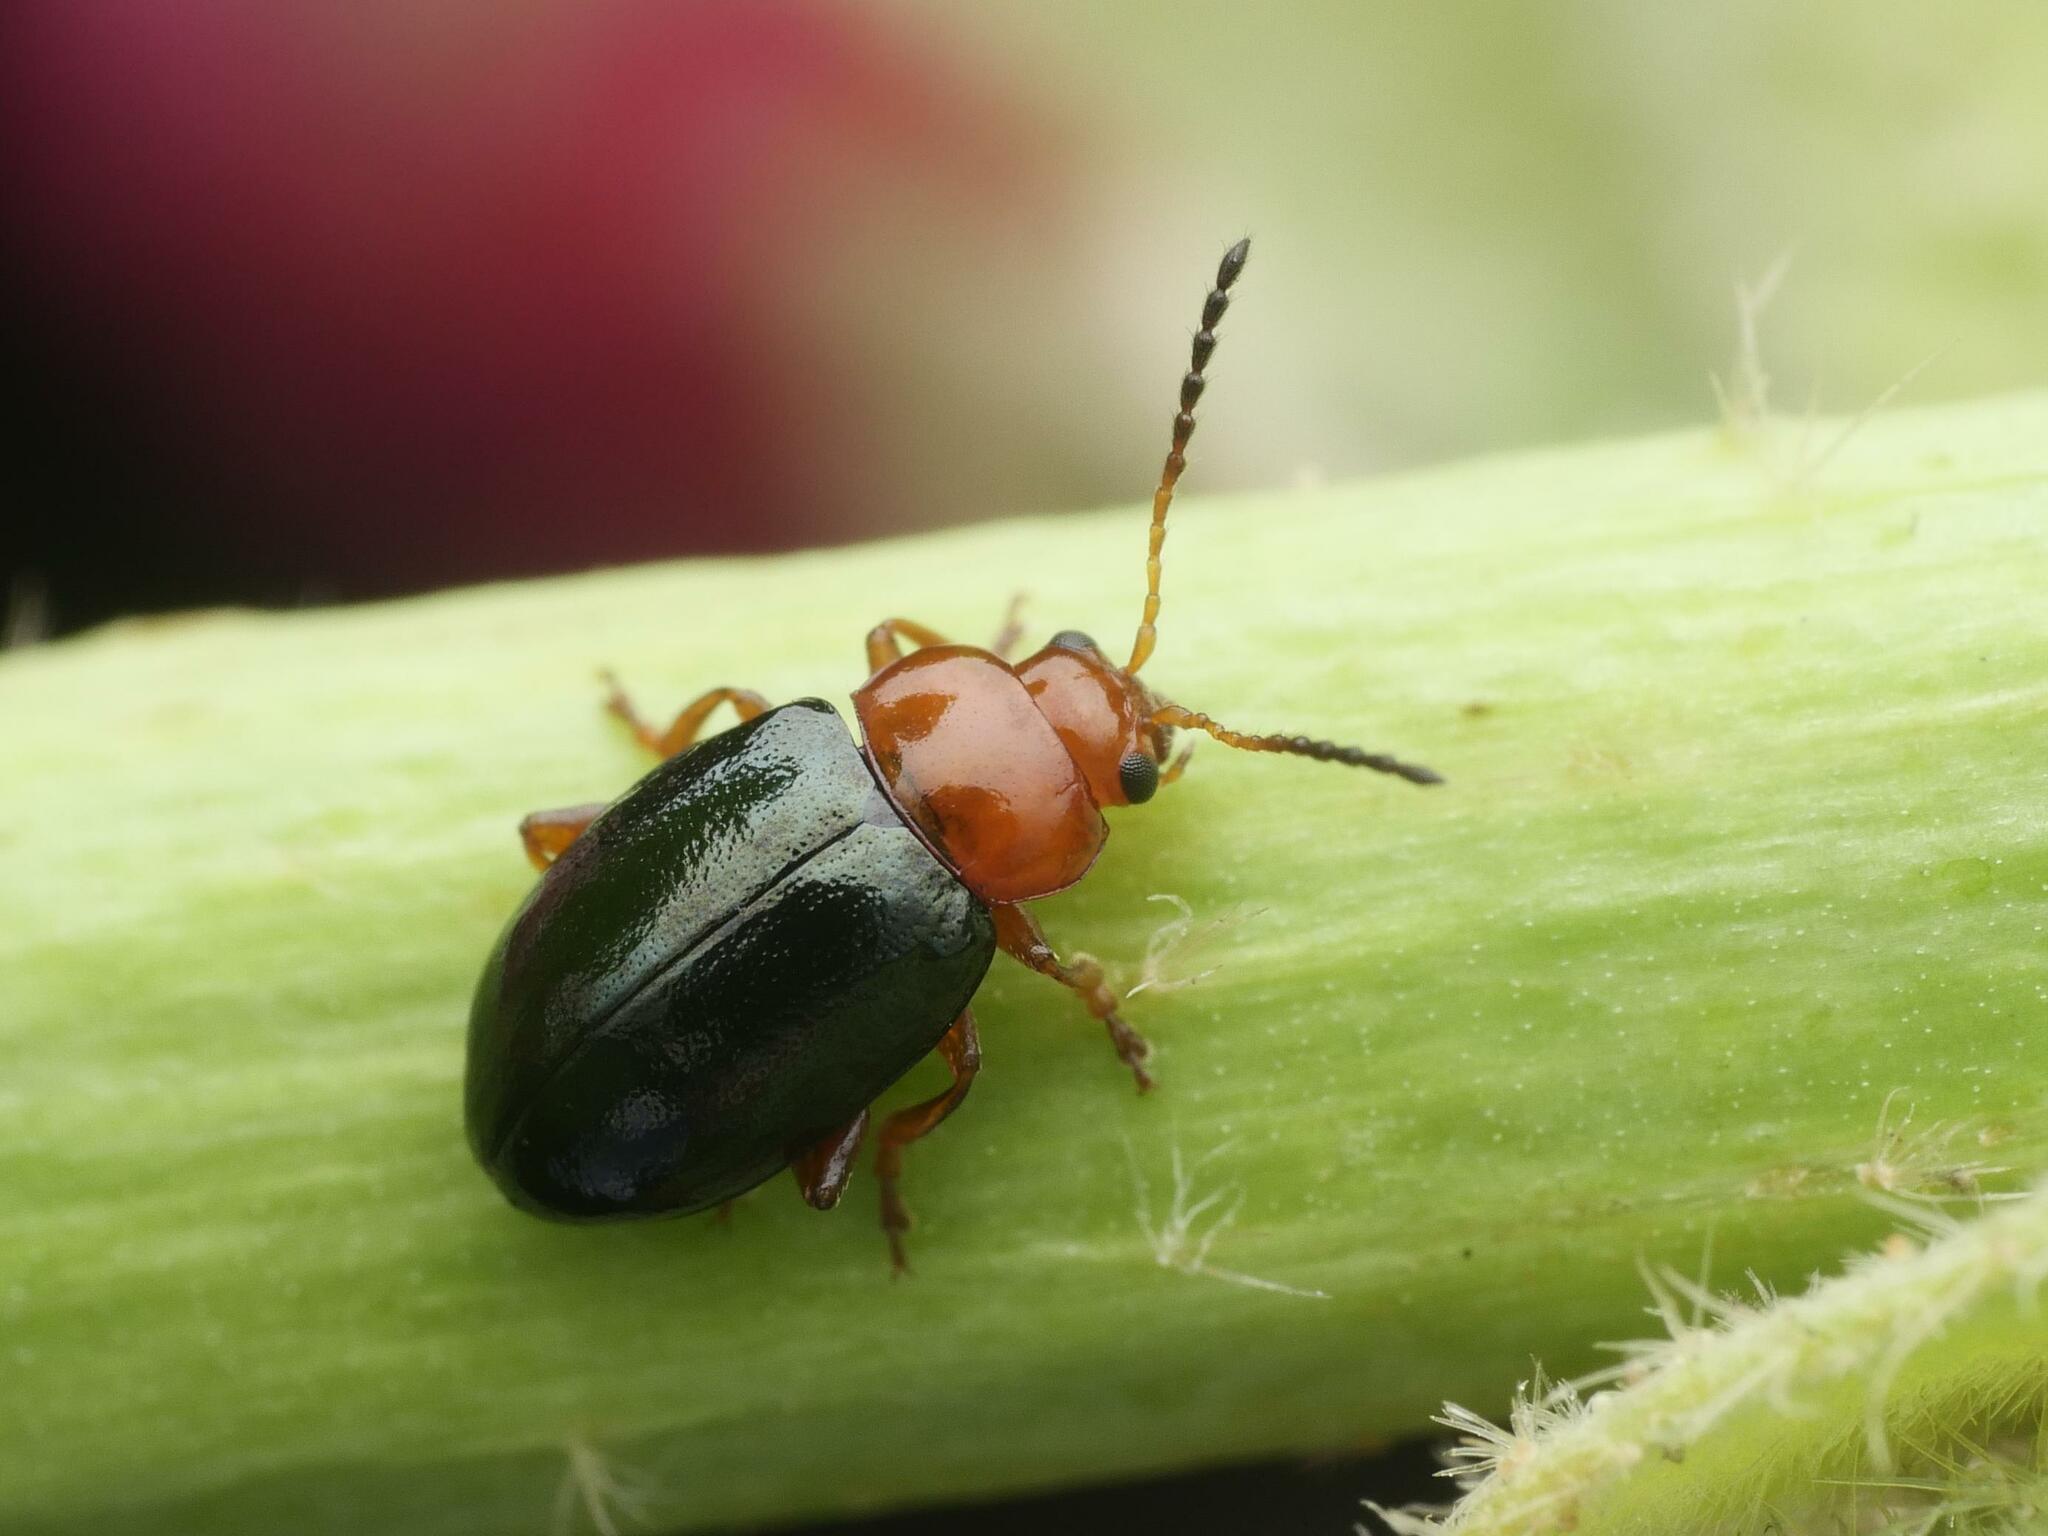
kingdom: Animalia
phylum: Arthropoda
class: Insecta
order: Coleoptera
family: Chrysomelidae
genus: Podagrica
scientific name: Podagrica fuscicornis
